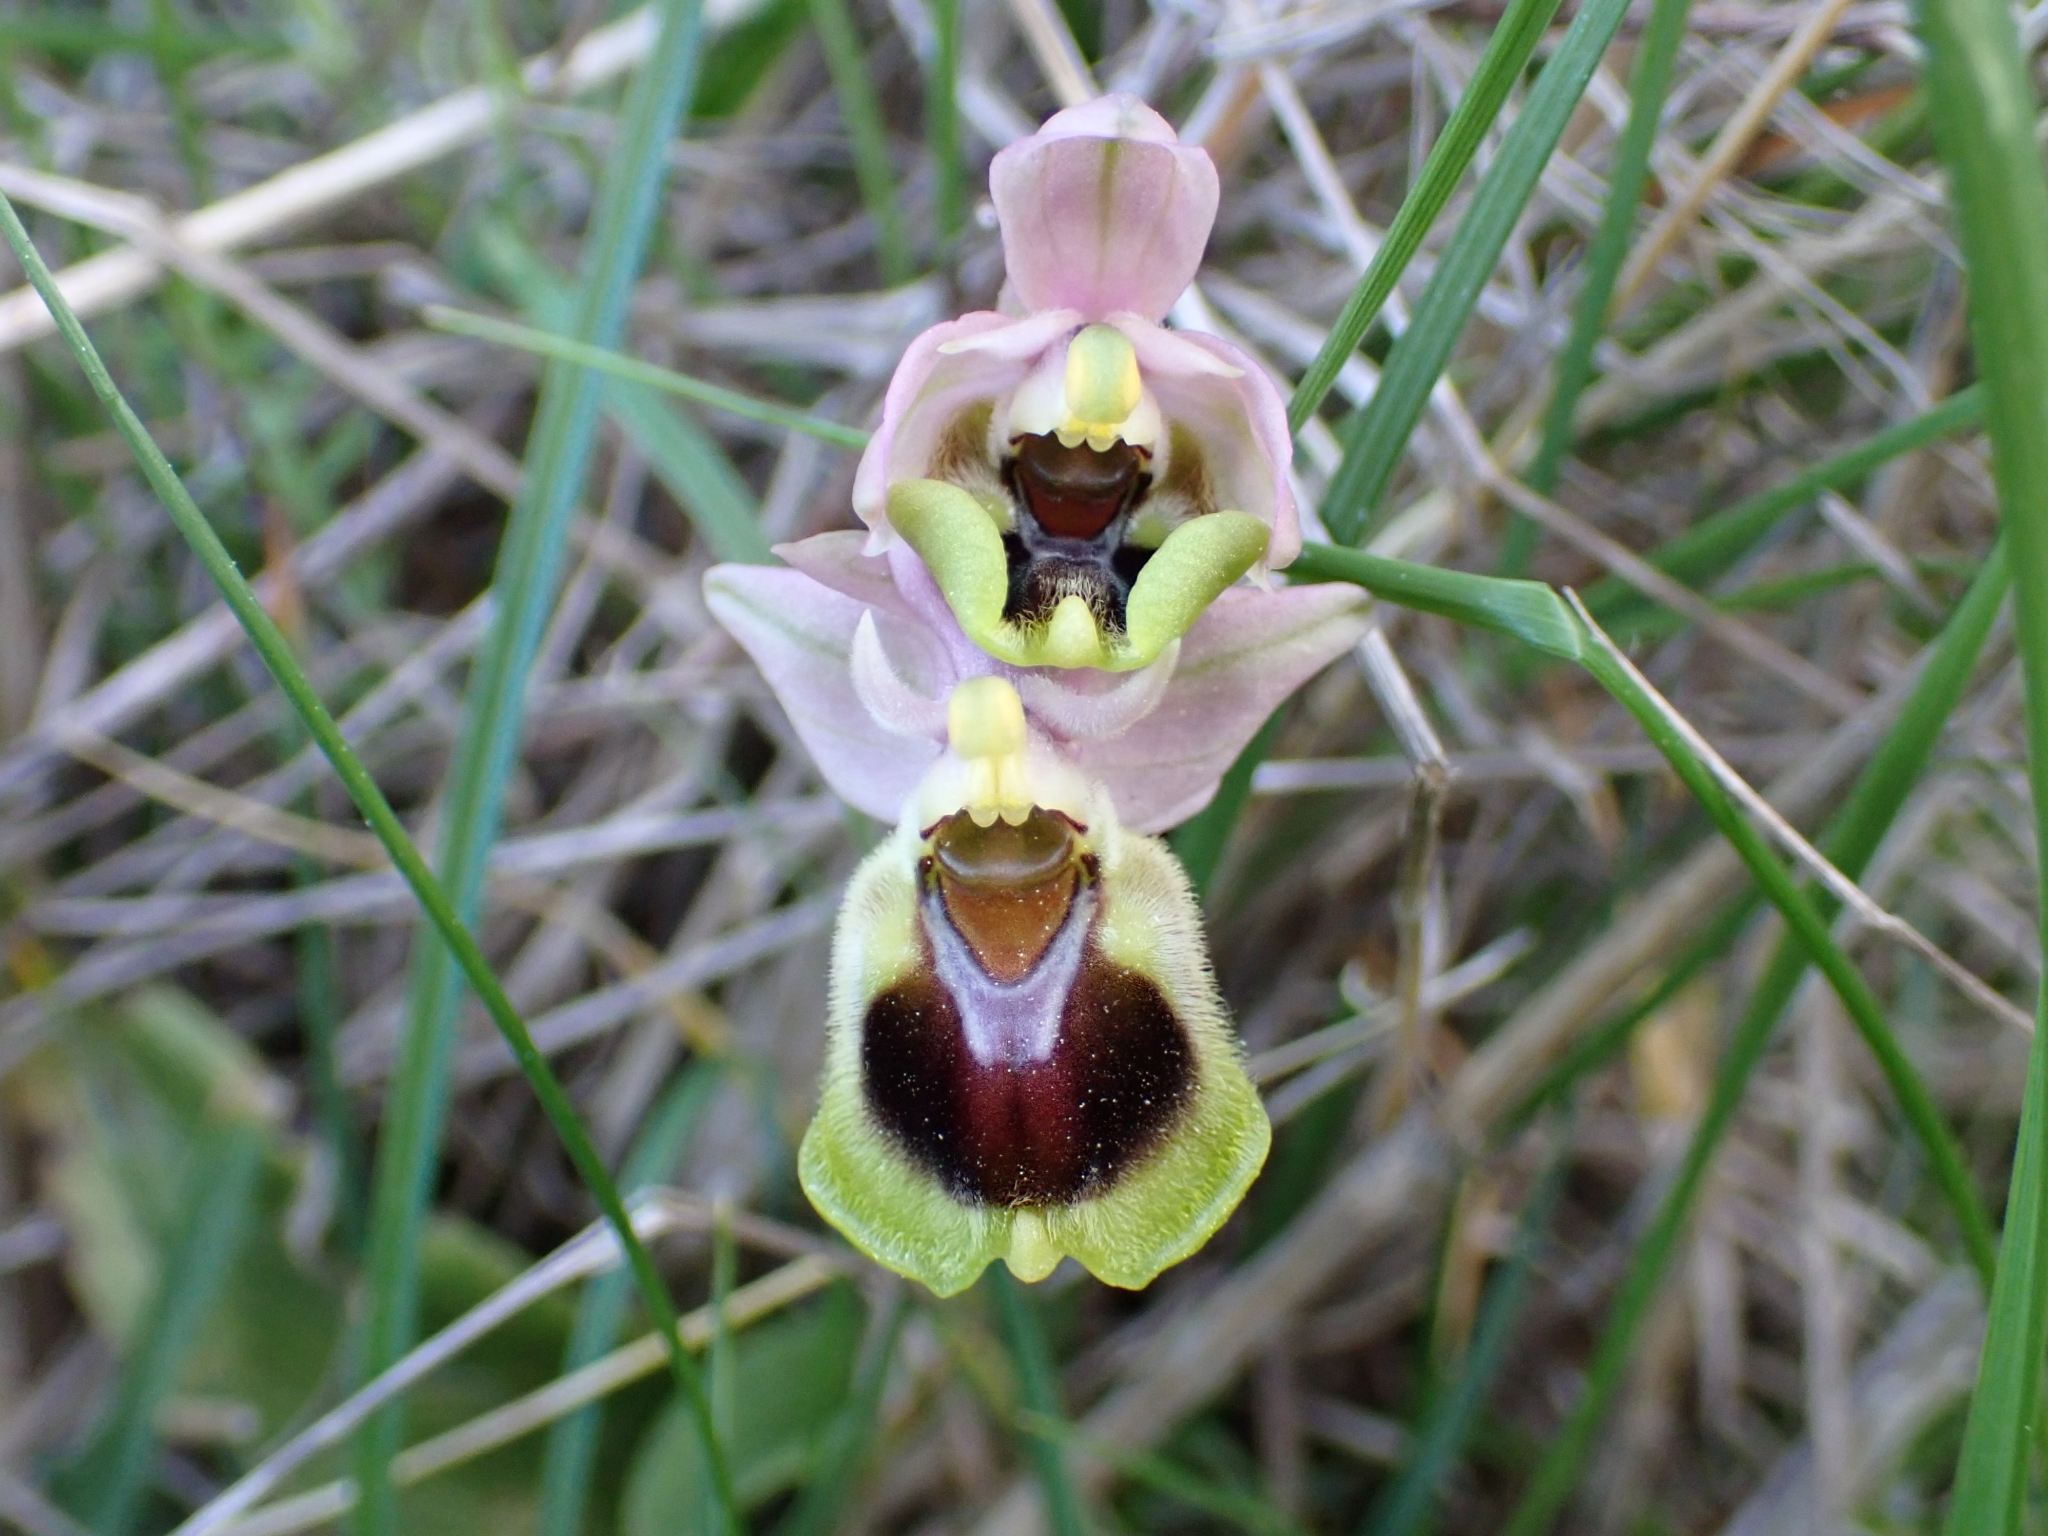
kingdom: Plantae
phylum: Tracheophyta
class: Liliopsida
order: Asparagales
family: Orchidaceae
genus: Ophrys
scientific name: Ophrys tenthredinifera
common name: Sawfly orchid
